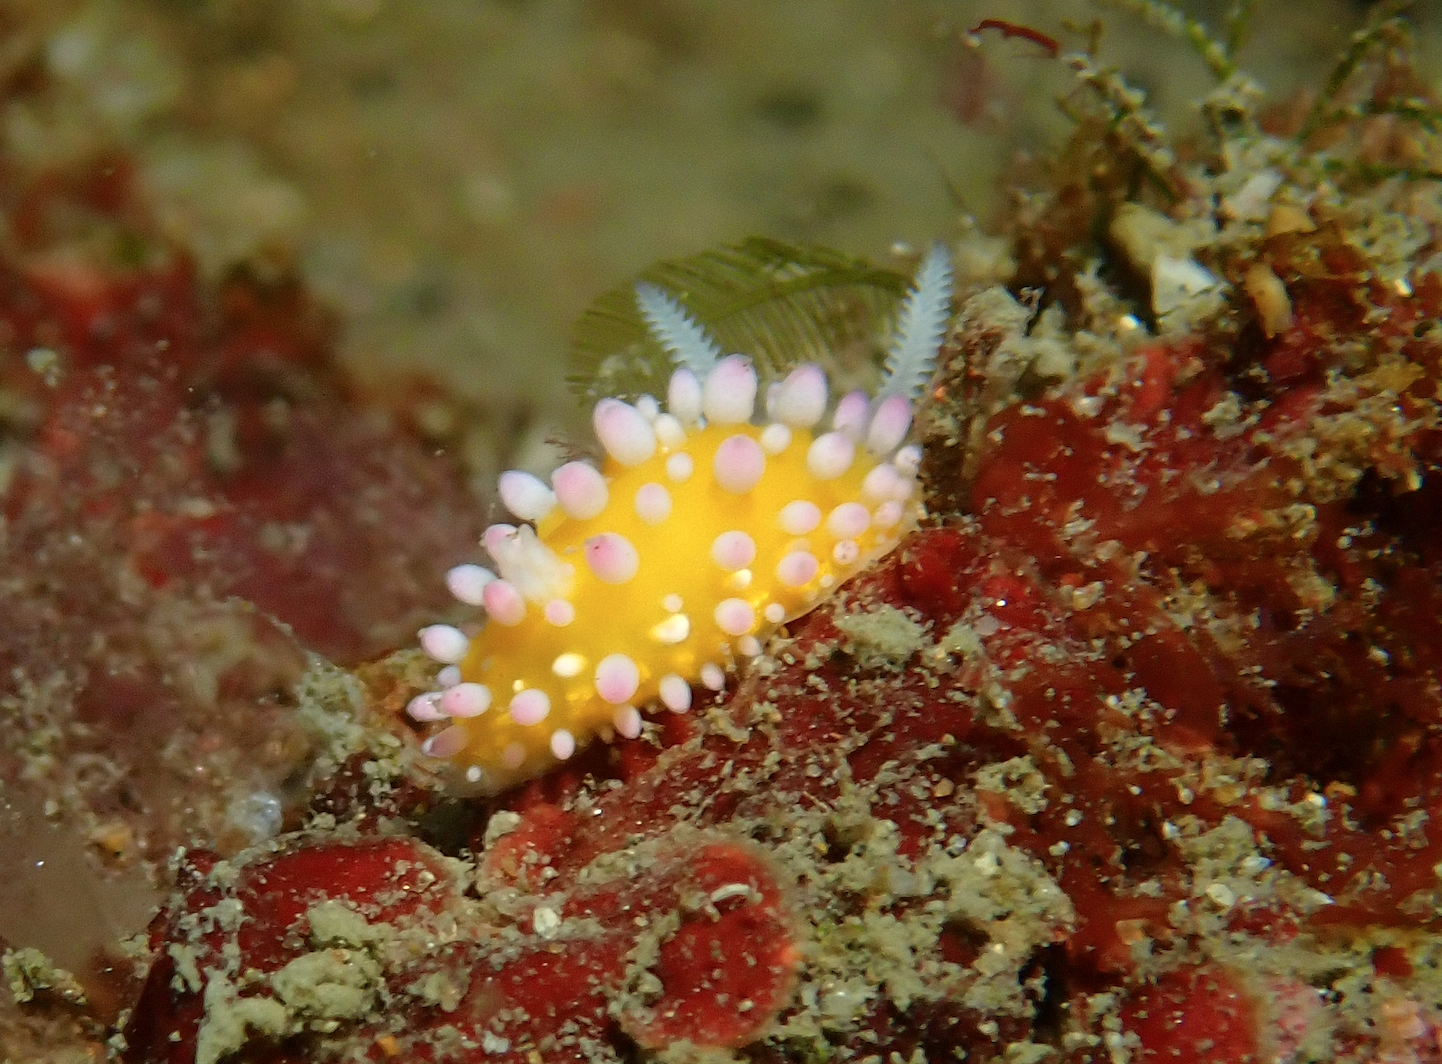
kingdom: Animalia
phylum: Mollusca
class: Gastropoda
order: Nudibranchia
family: Cadlinellidae
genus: Cadlinella
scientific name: Cadlinella ornatissima
